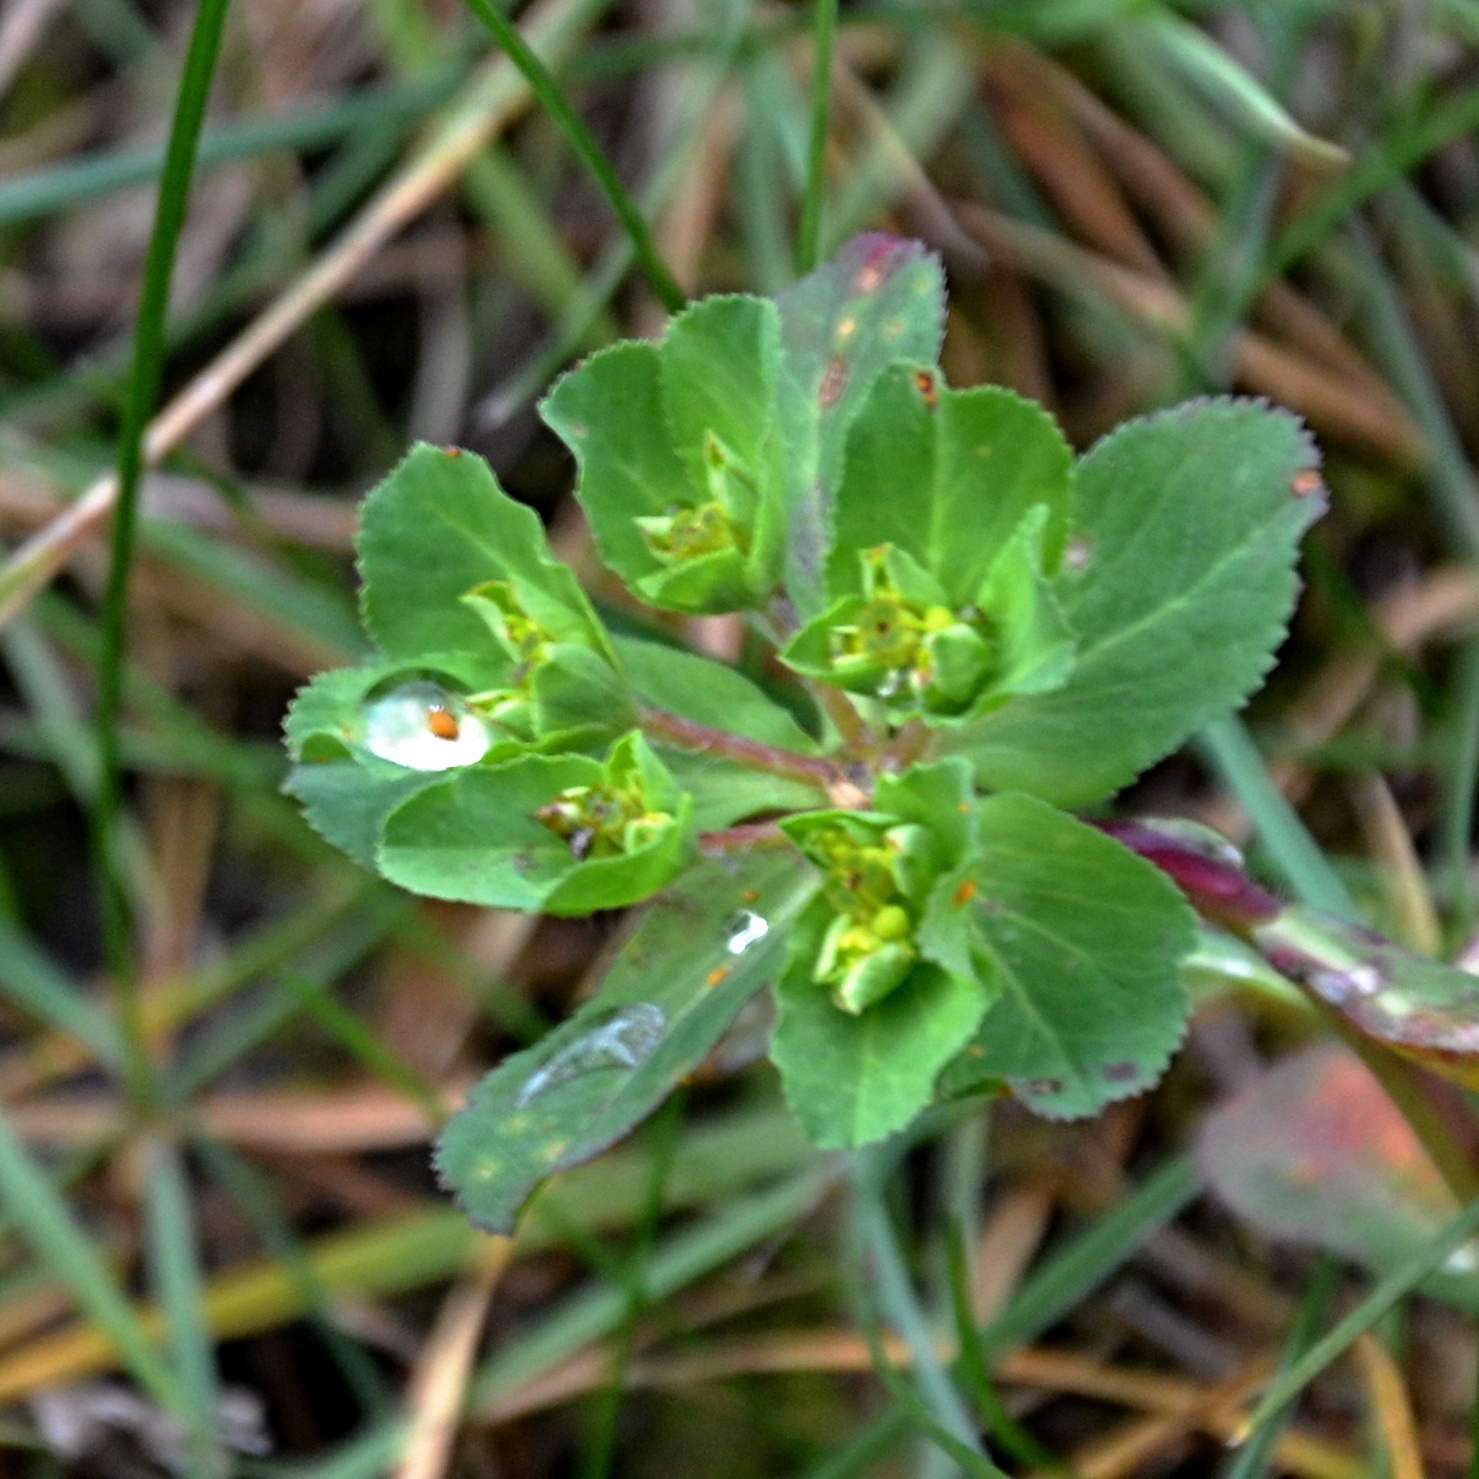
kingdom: Plantae
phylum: Tracheophyta
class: Magnoliopsida
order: Malpighiales
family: Euphorbiaceae
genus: Euphorbia
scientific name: Euphorbia helioscopia
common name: Sun spurge
